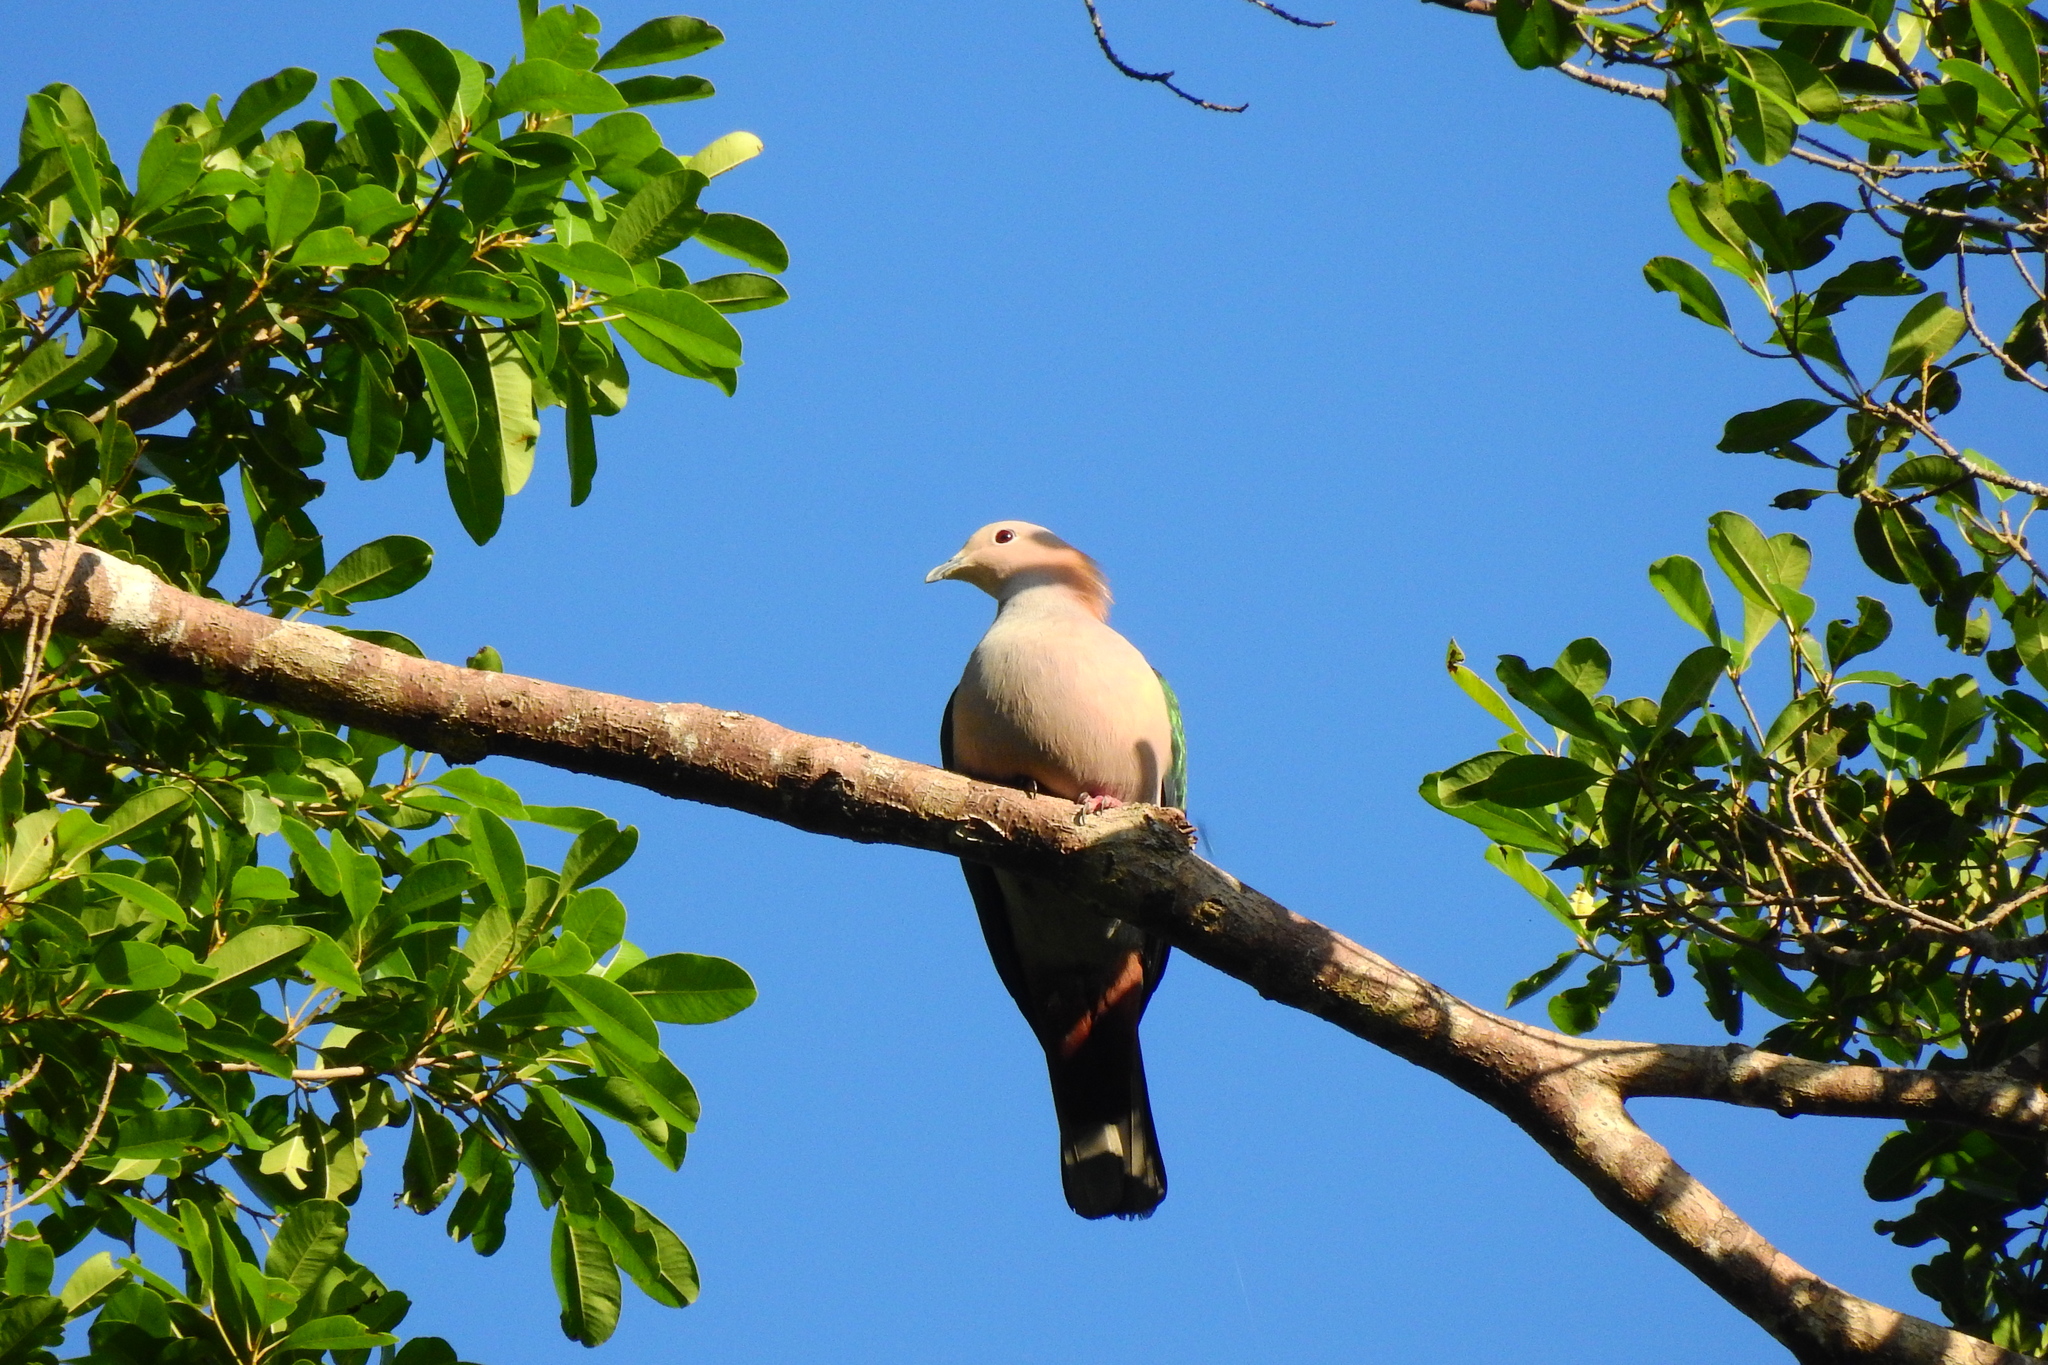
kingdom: Animalia
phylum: Chordata
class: Aves
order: Columbiformes
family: Columbidae
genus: Ducula
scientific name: Ducula aenea
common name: Green imperial pigeon
